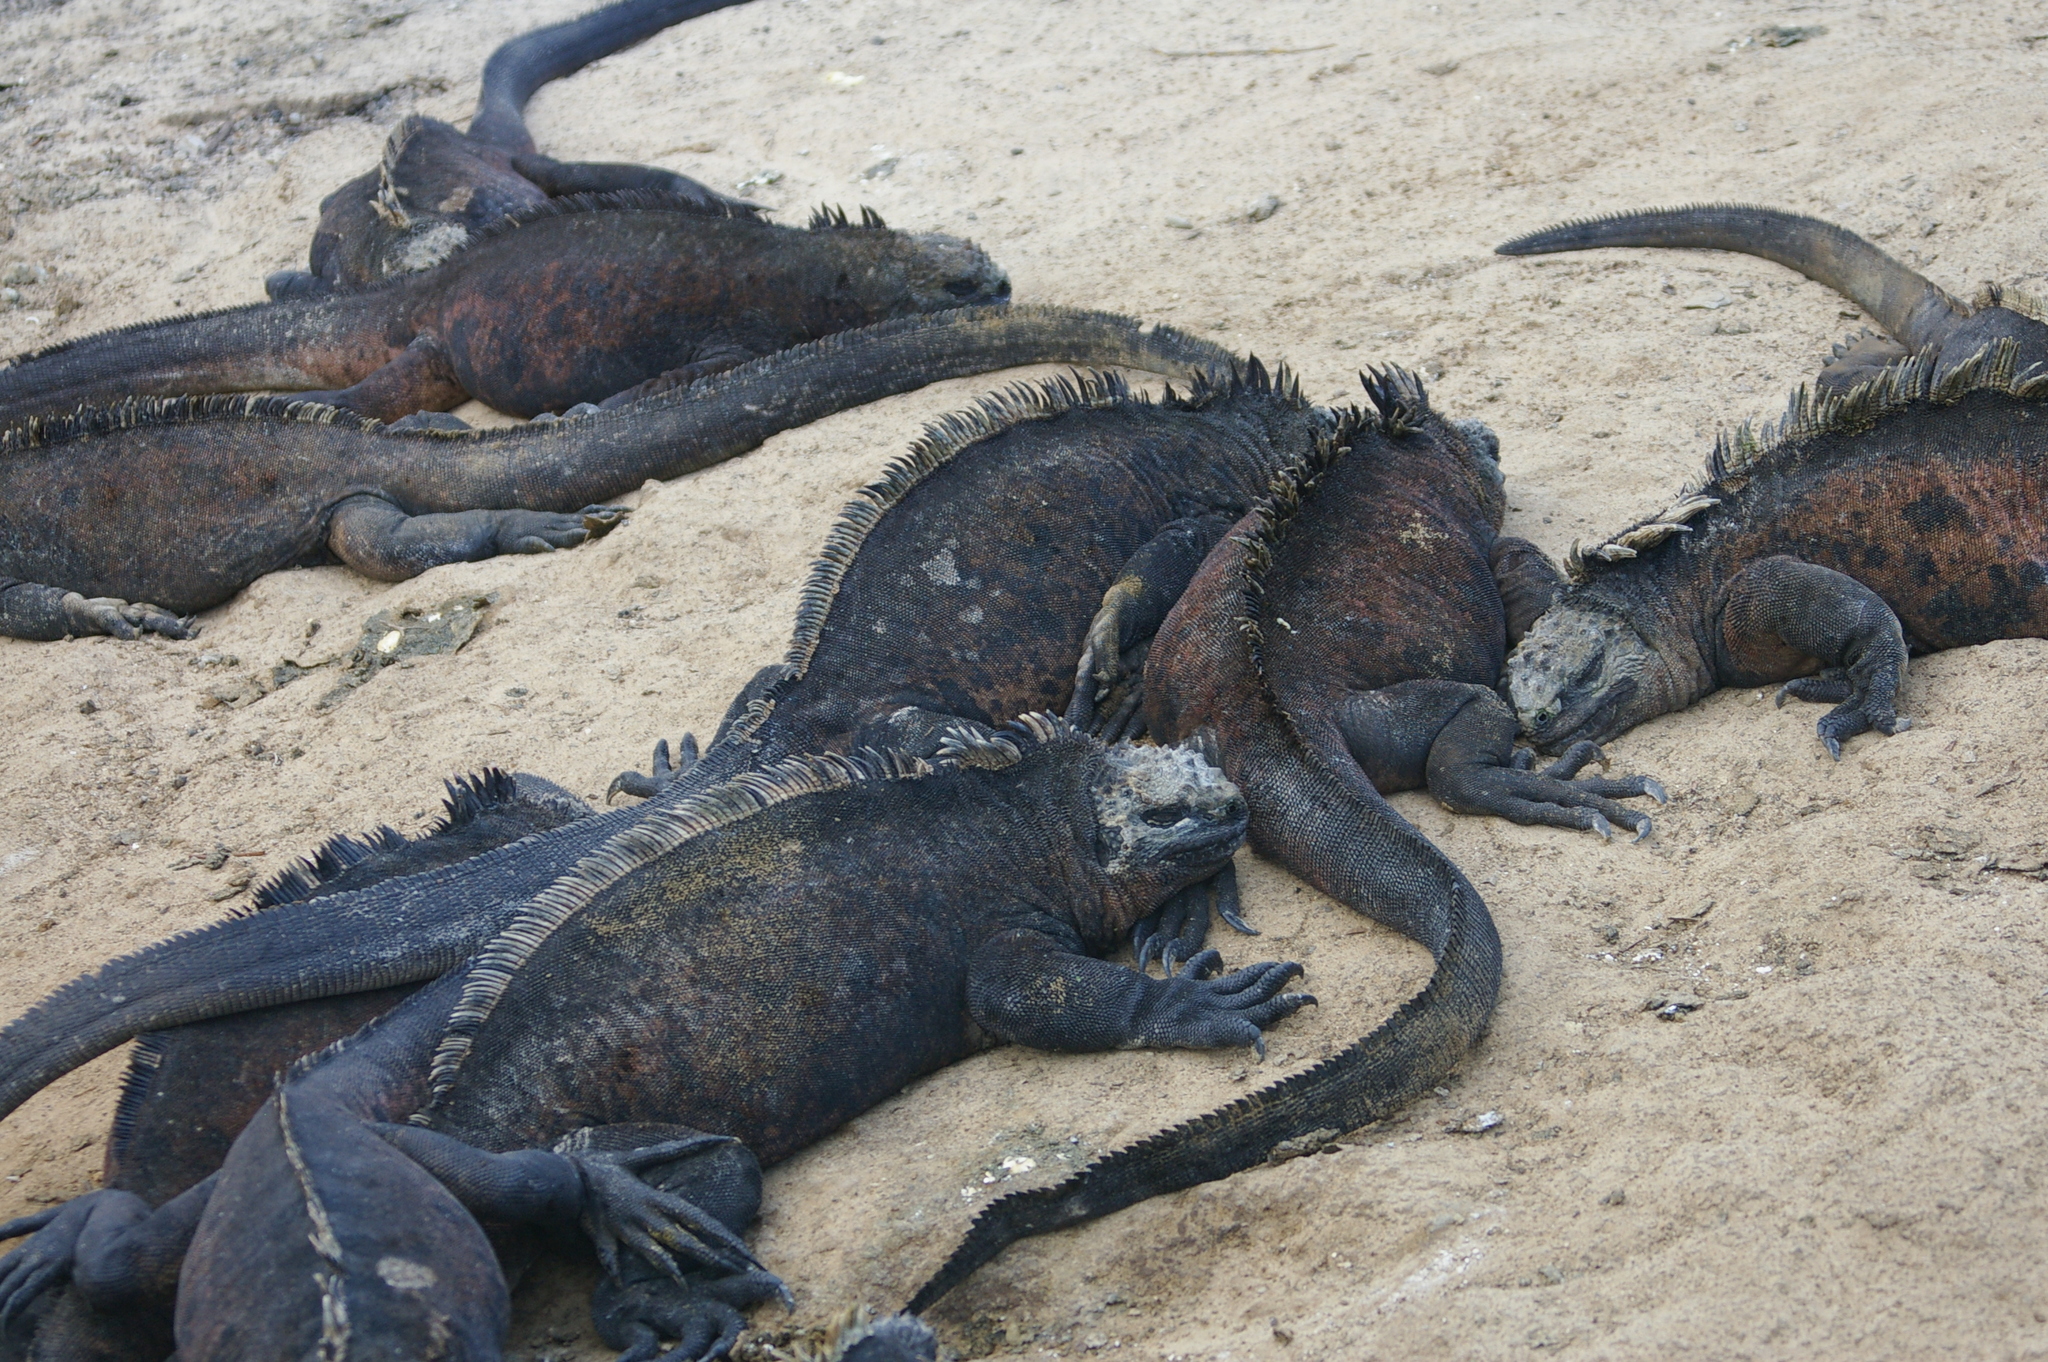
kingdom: Animalia
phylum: Chordata
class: Squamata
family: Iguanidae
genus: Amblyrhynchus
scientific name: Amblyrhynchus cristatus
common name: Marine iguana
